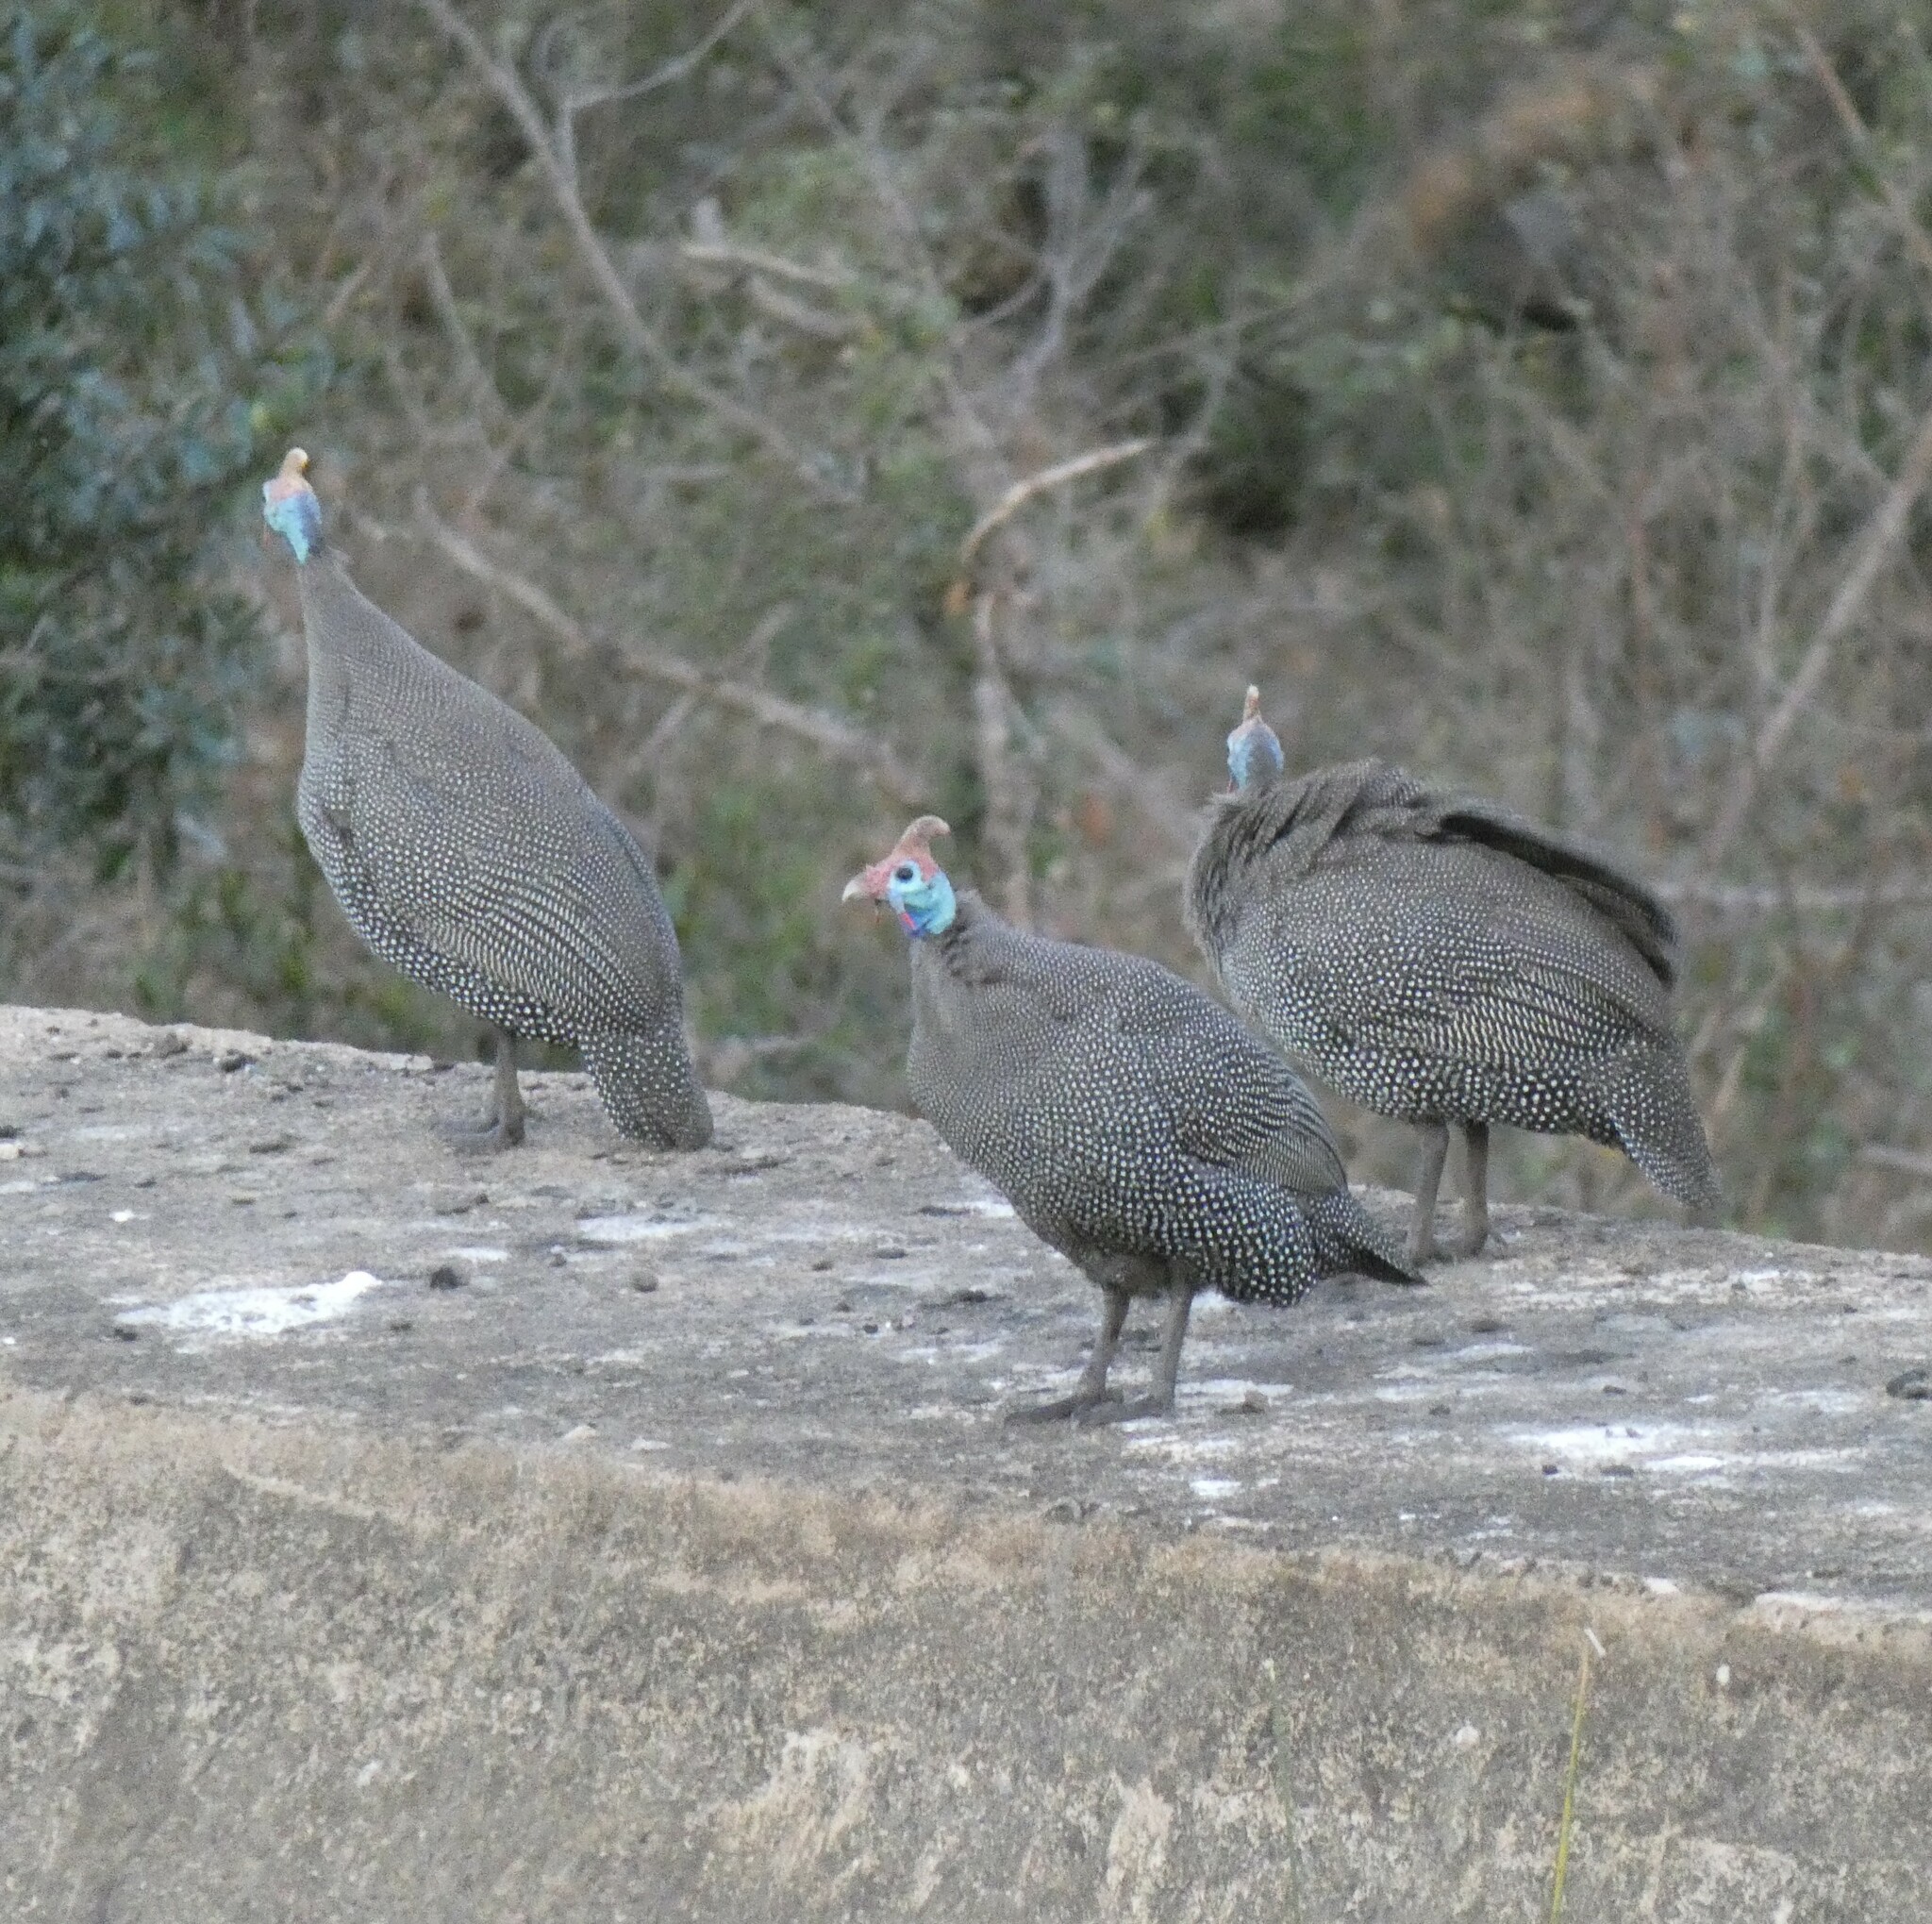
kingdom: Animalia
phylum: Chordata
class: Aves
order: Galliformes
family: Numididae
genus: Numida
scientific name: Numida meleagris
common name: Helmeted guineafowl
